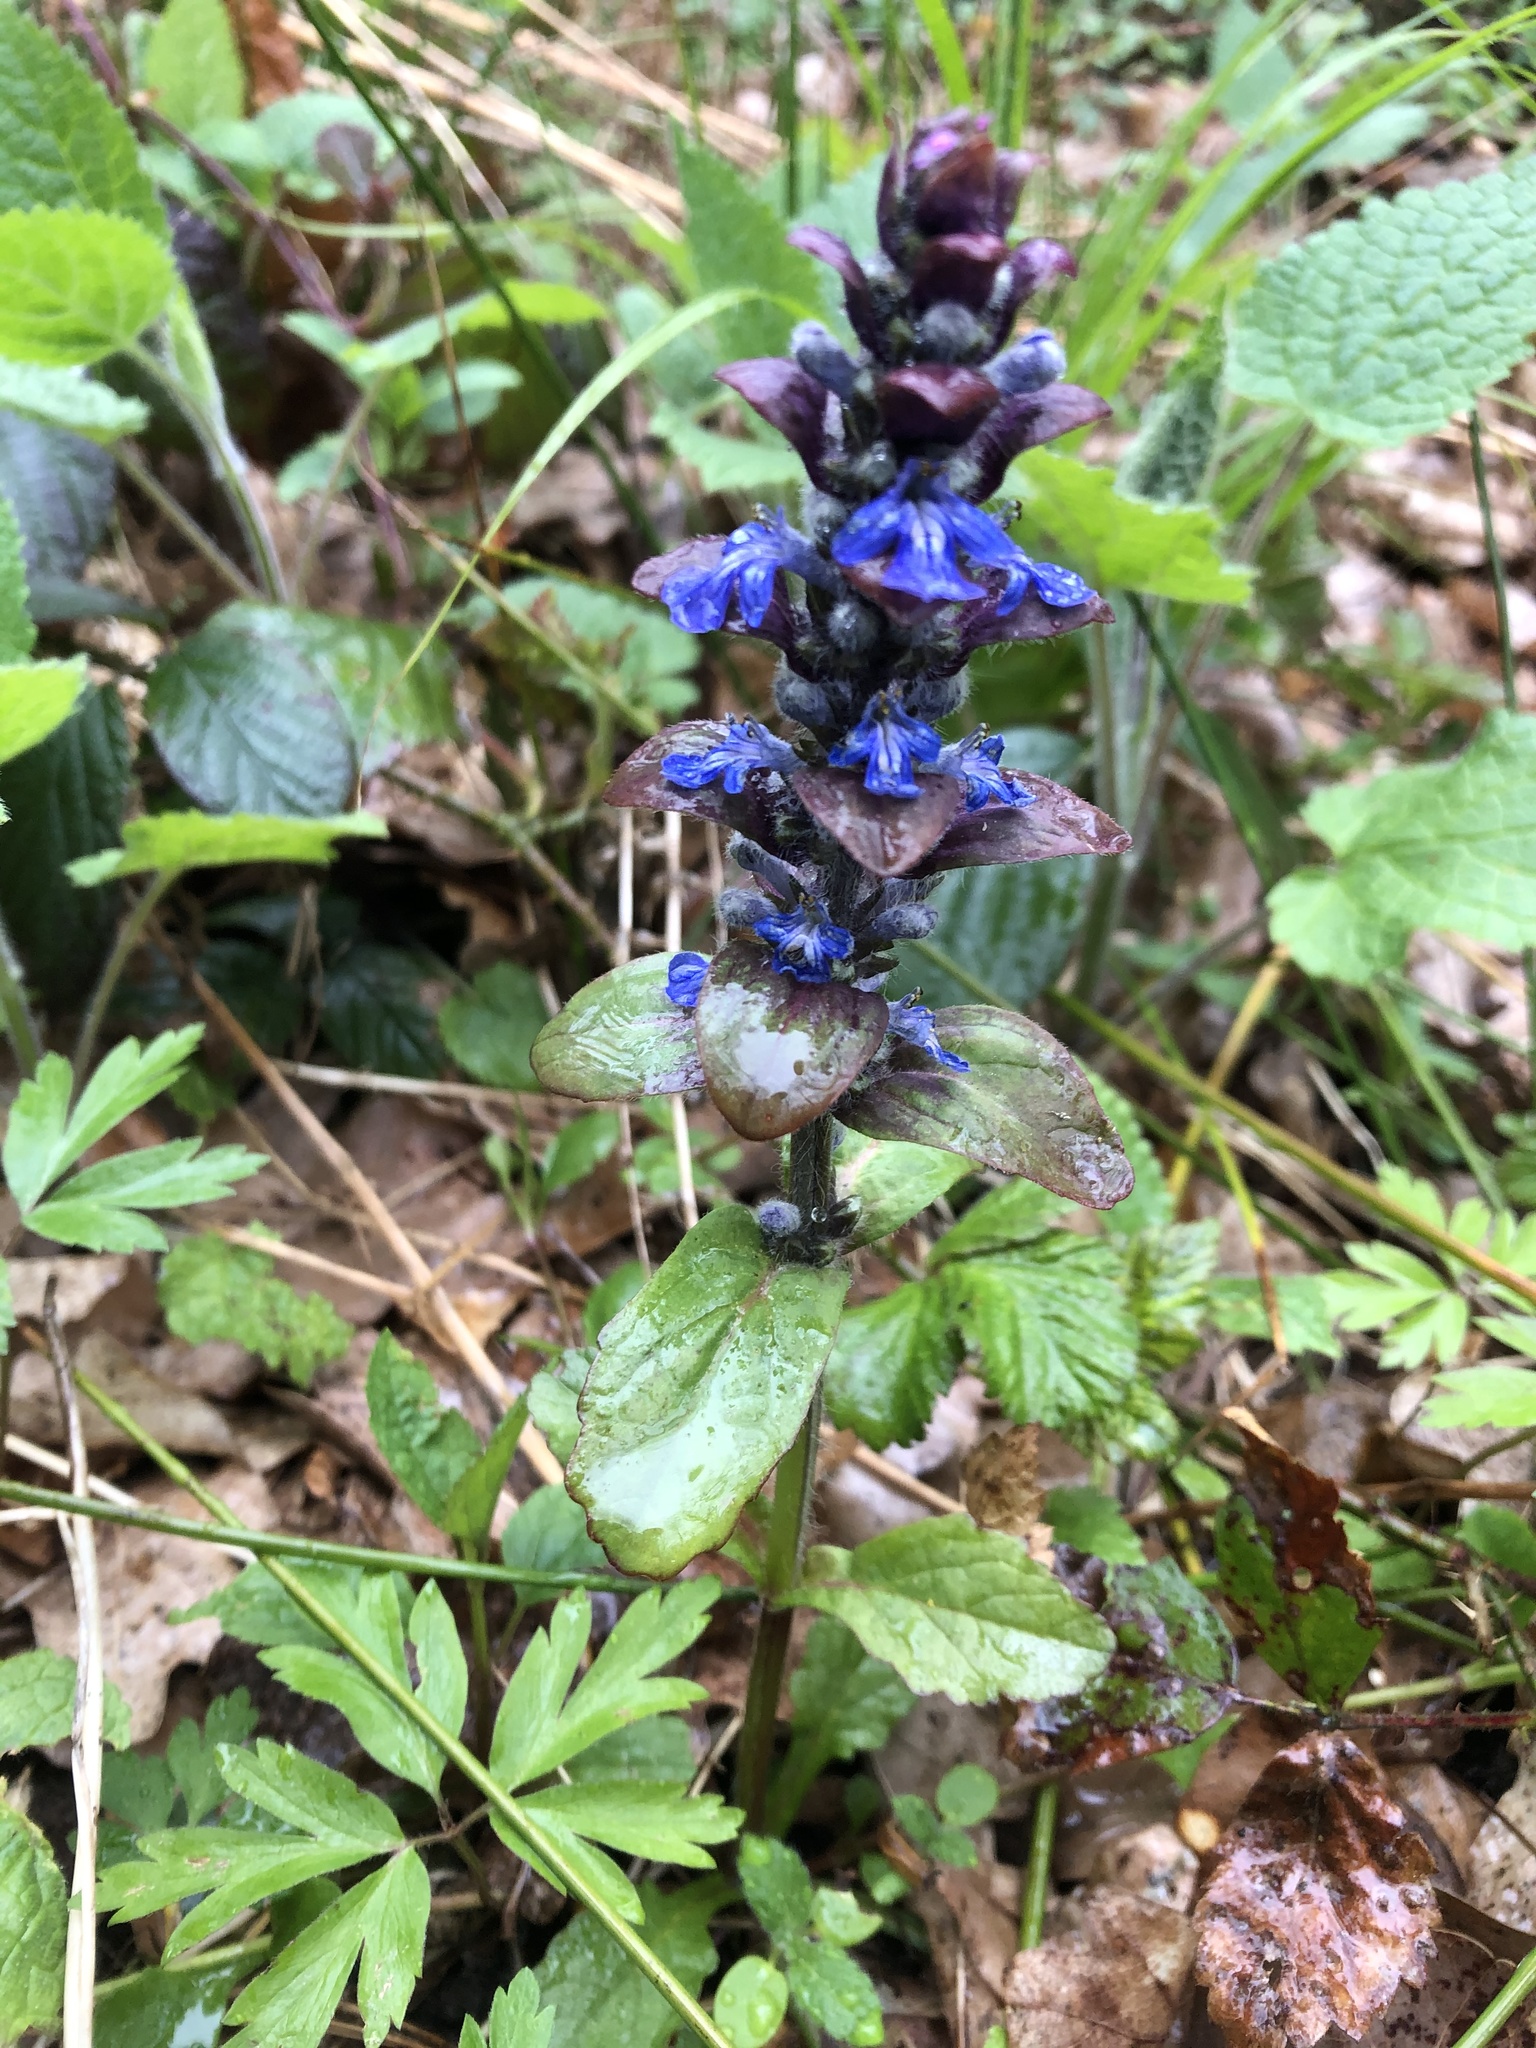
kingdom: Plantae
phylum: Tracheophyta
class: Magnoliopsida
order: Lamiales
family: Lamiaceae
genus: Ajuga
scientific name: Ajuga reptans
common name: Bugle
